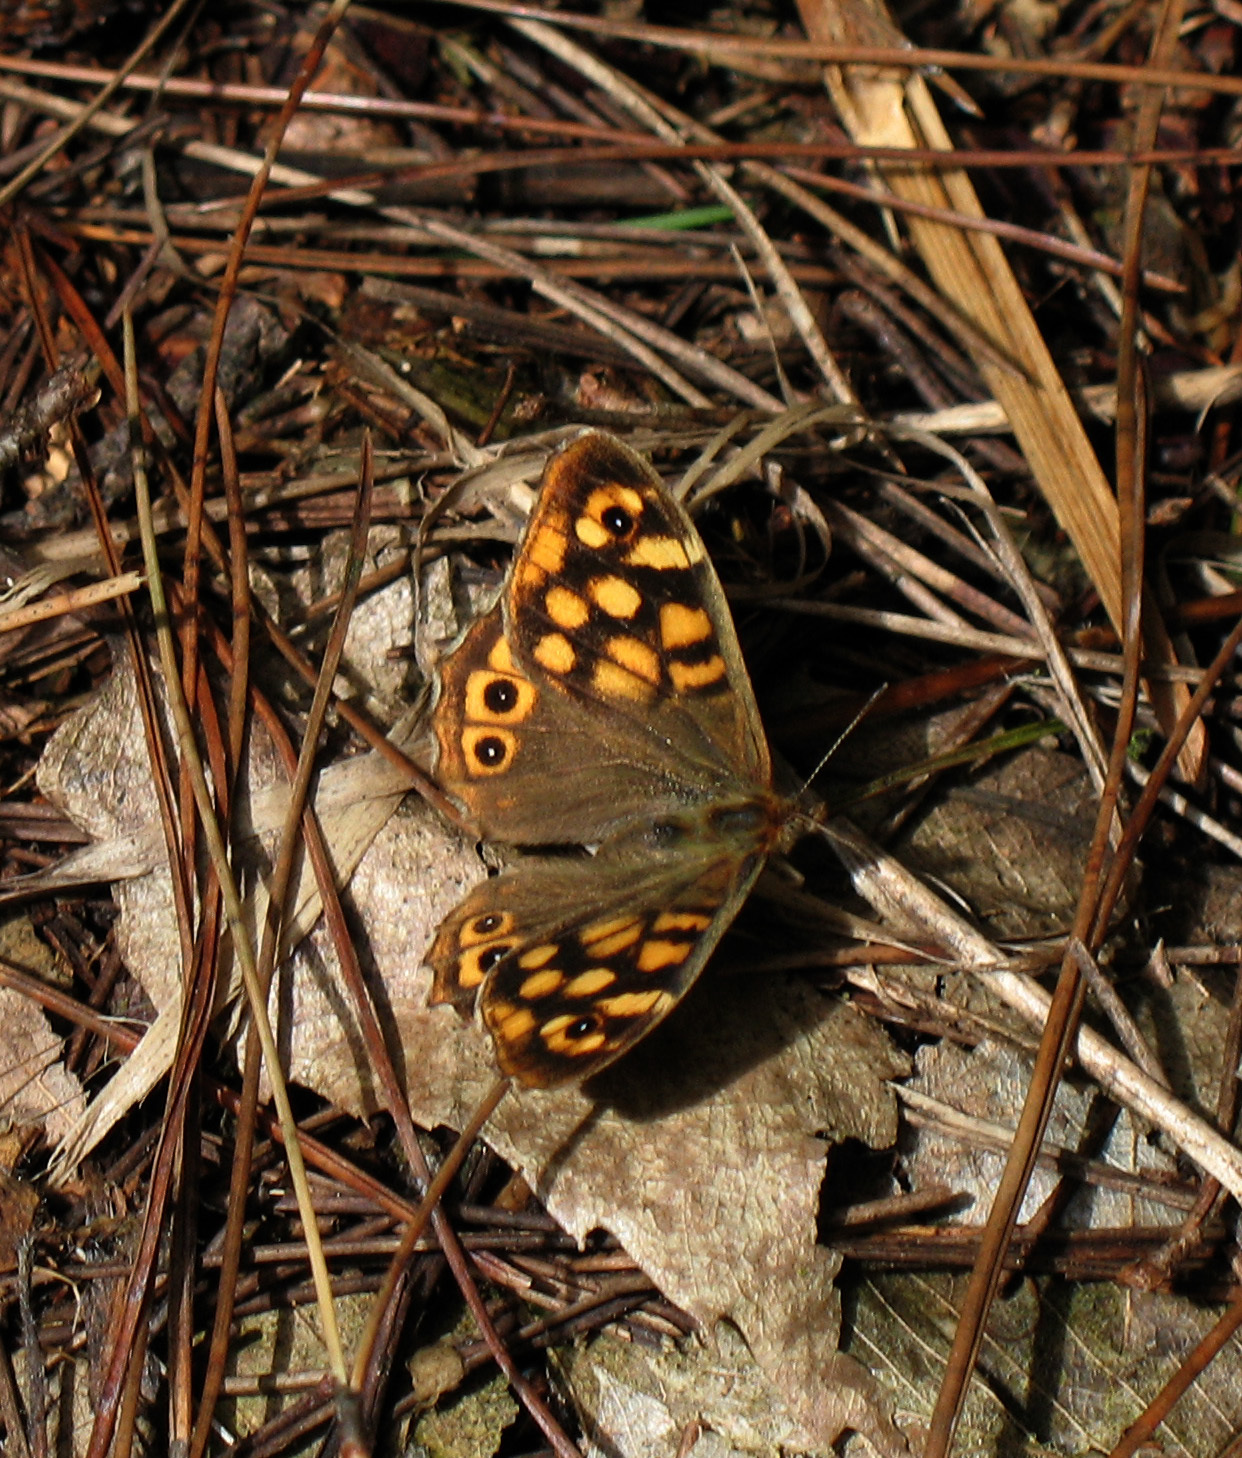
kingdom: Animalia
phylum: Arthropoda
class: Insecta
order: Lepidoptera
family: Nymphalidae
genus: Pararge
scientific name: Pararge aegeria
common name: Speckled wood
